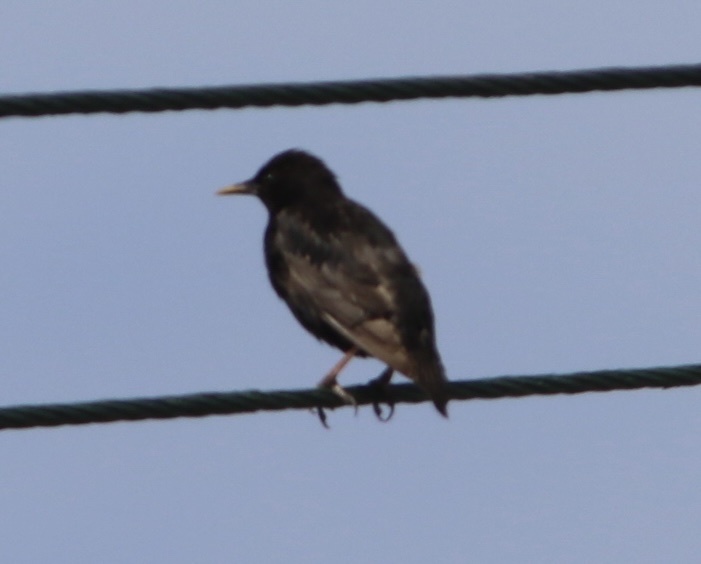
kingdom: Animalia
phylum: Chordata
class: Aves
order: Passeriformes
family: Sturnidae
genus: Sturnus
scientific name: Sturnus vulgaris
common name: Common starling
